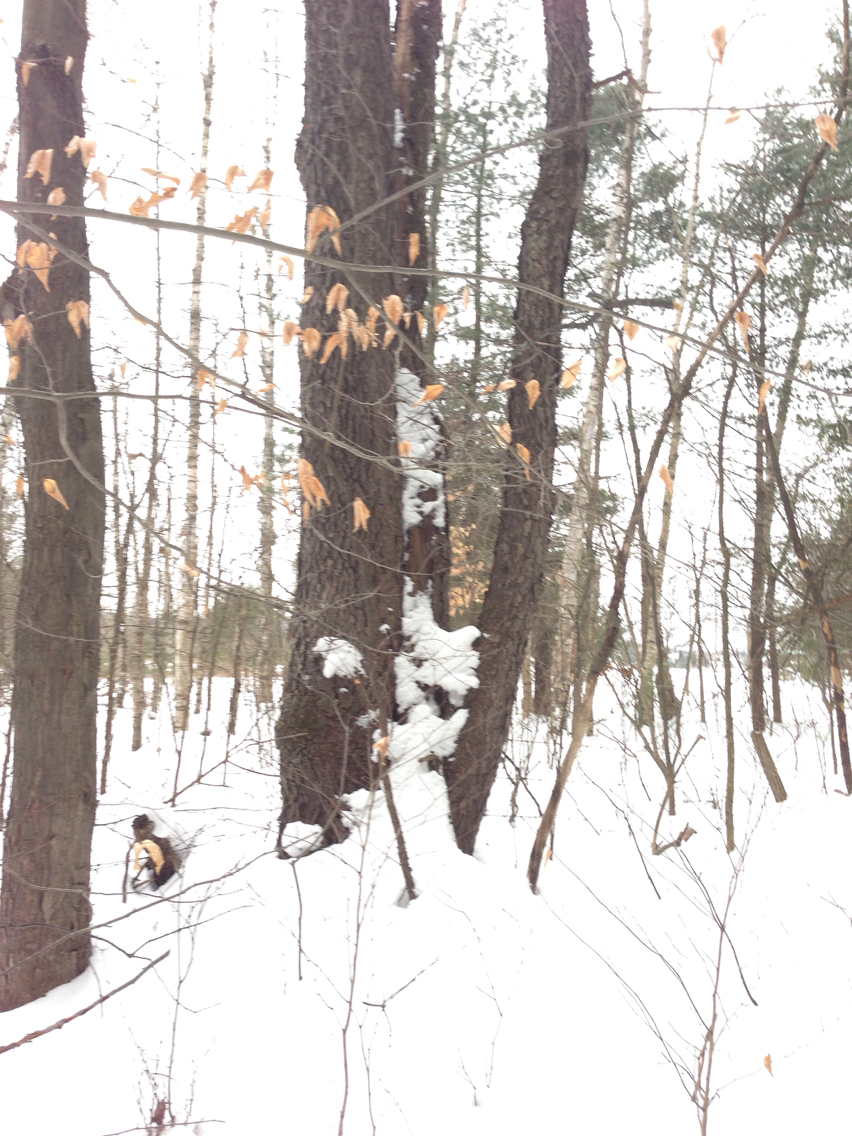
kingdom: Plantae
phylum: Tracheophyta
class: Magnoliopsida
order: Rosales
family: Rosaceae
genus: Prunus
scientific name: Prunus serotina
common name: Black cherry
